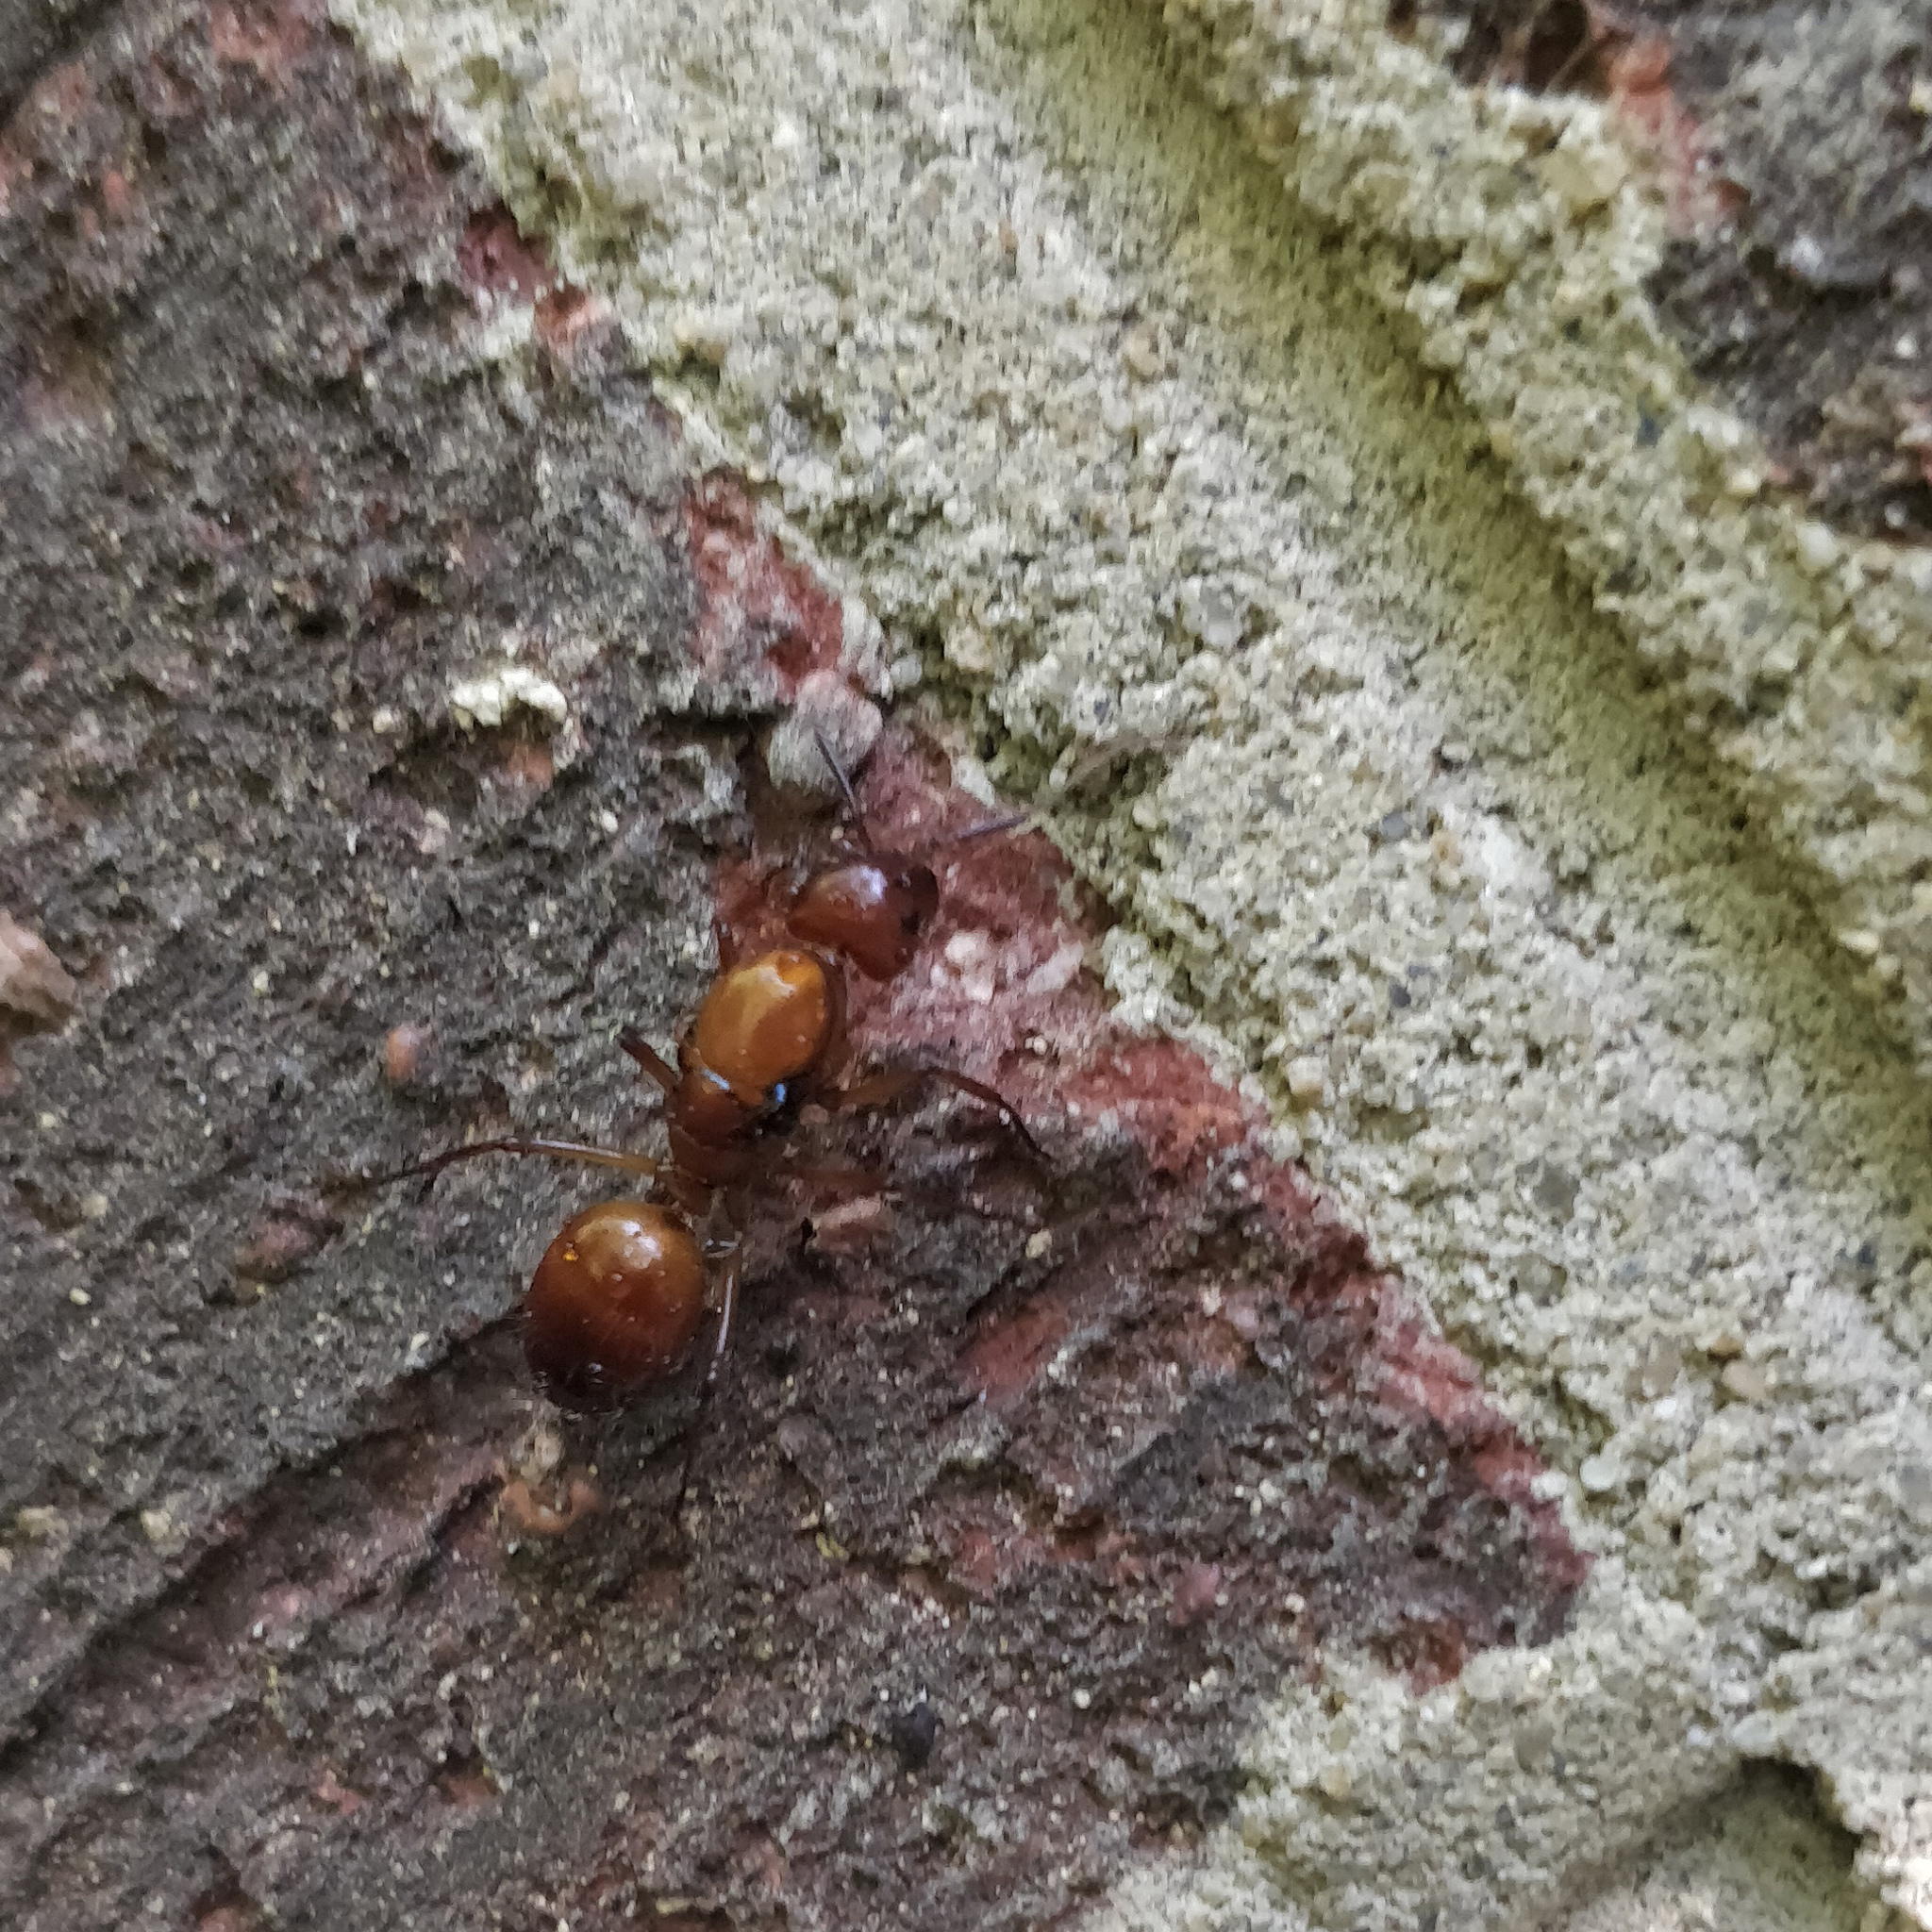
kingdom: Animalia
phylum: Arthropoda
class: Insecta
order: Hymenoptera
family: Formicidae
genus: Camponotus
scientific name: Camponotus castaneus
